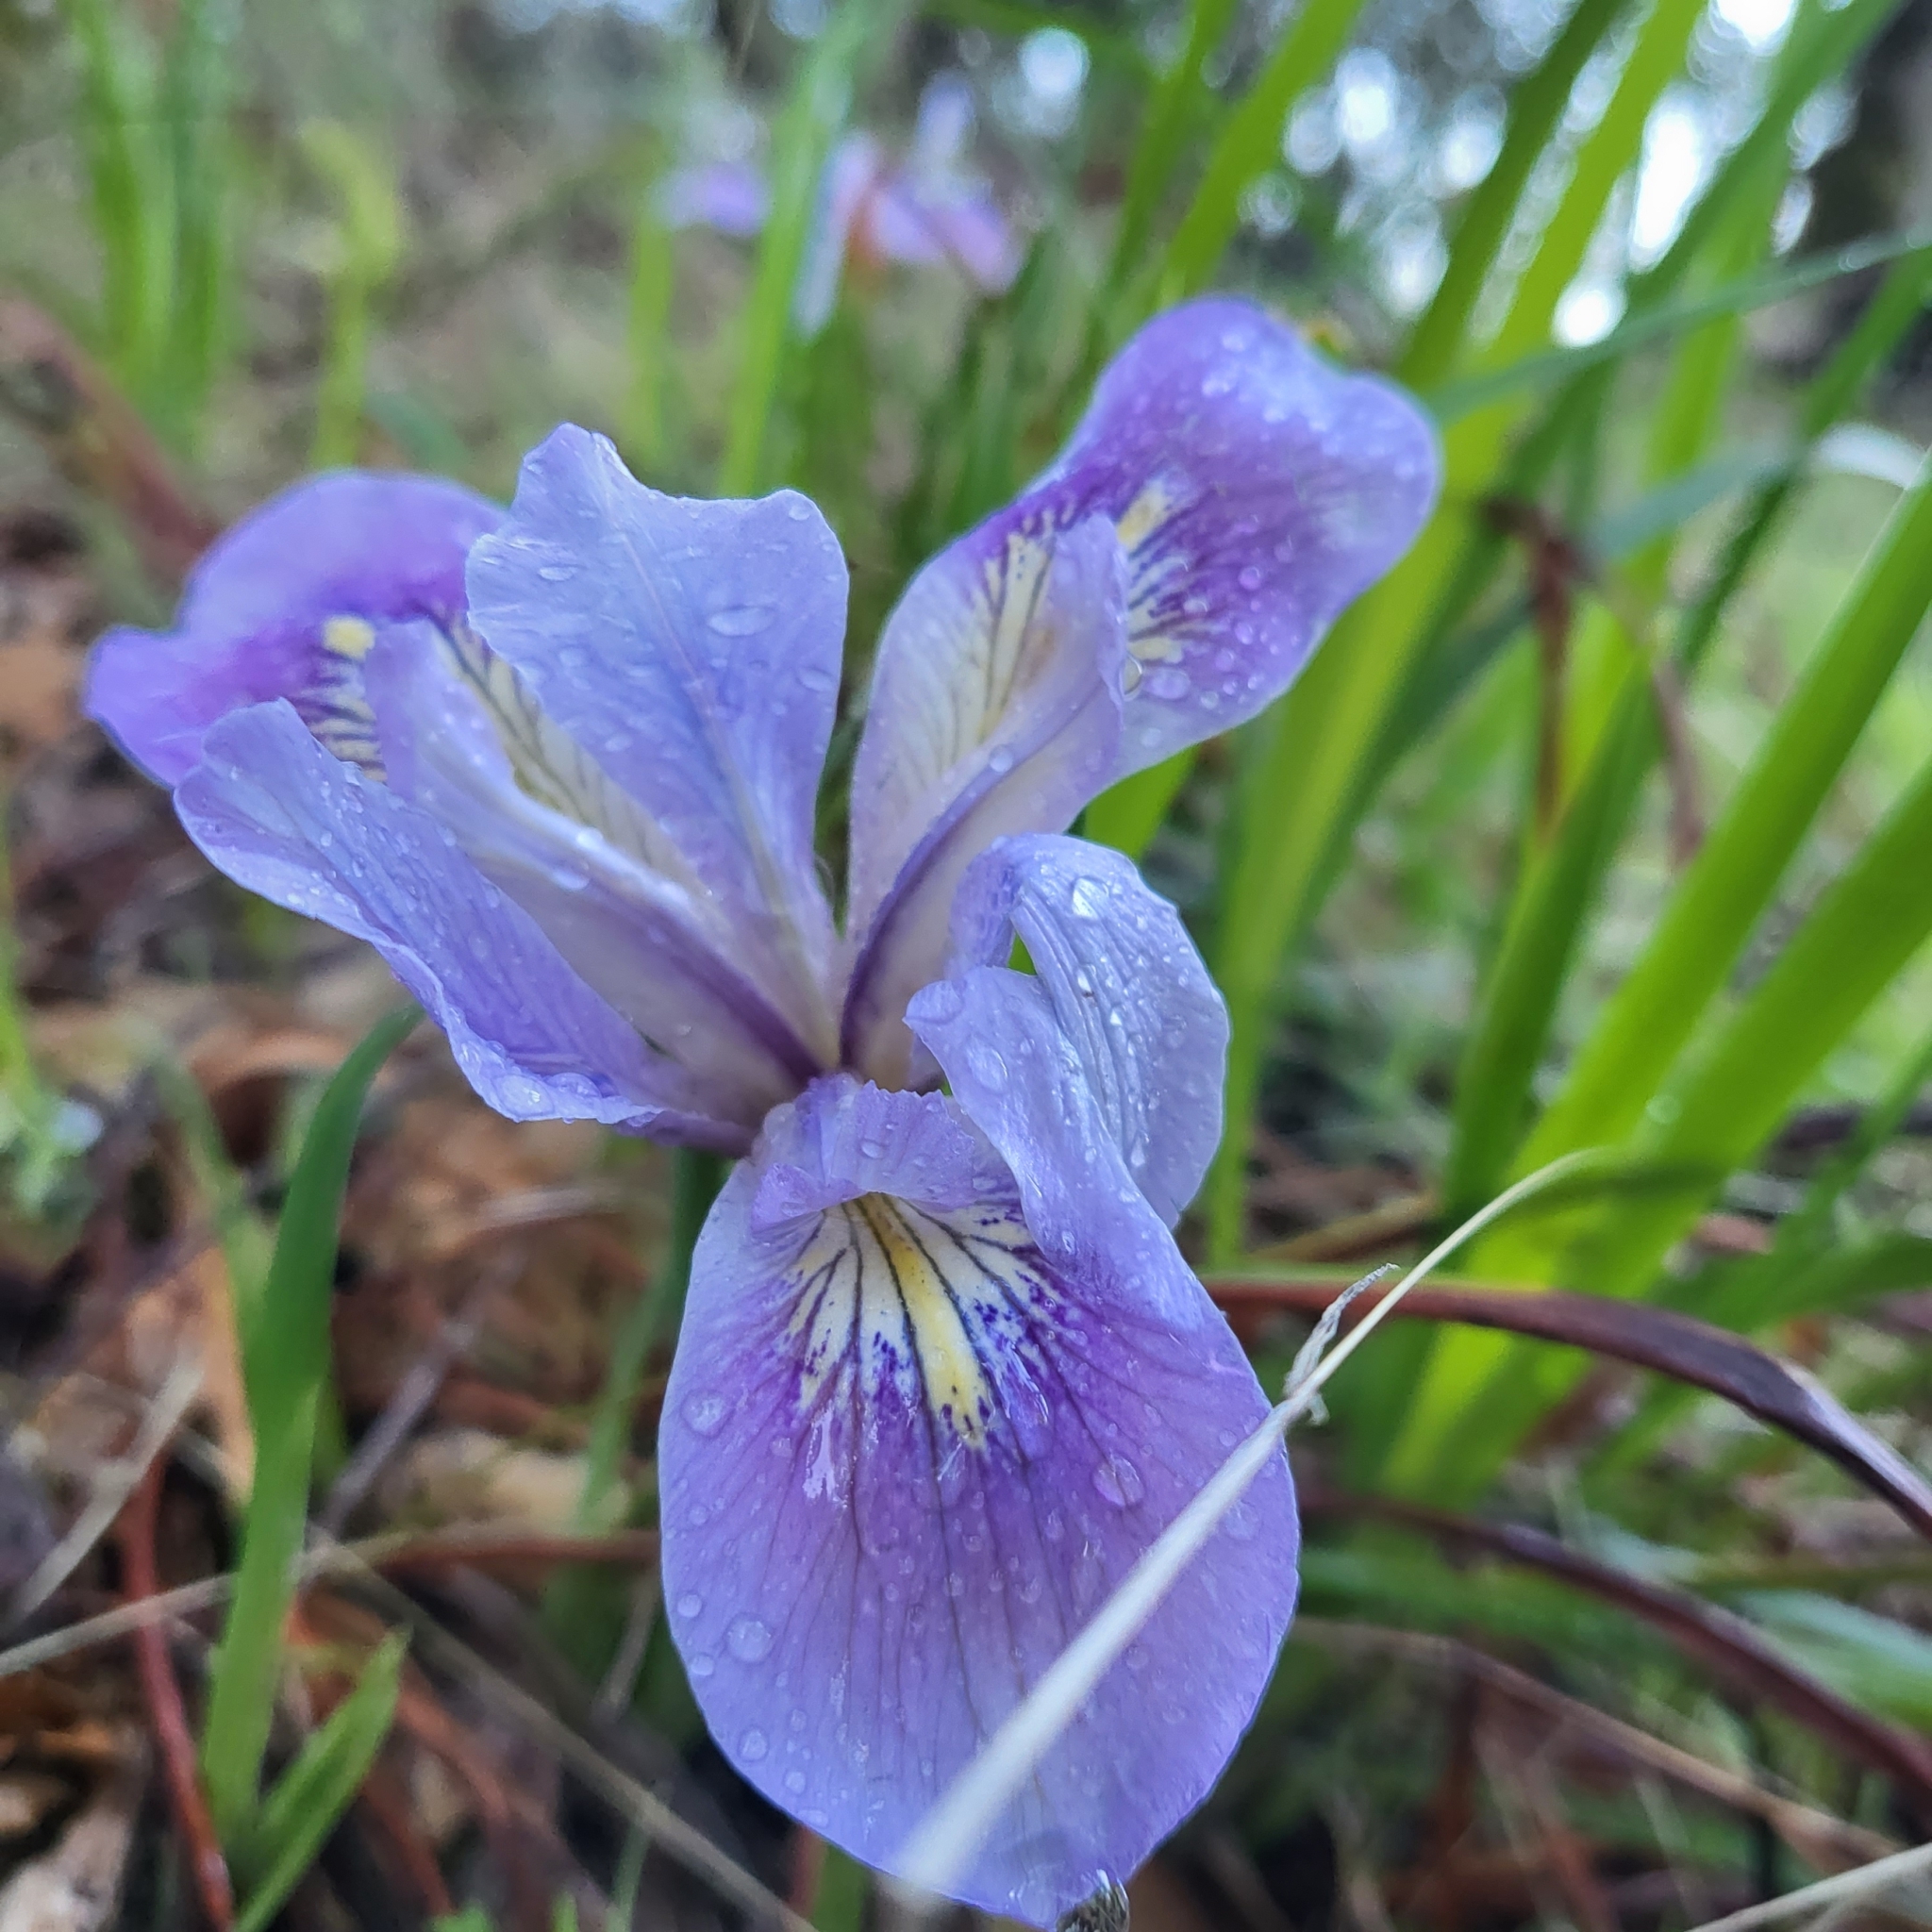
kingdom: Plantae
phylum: Tracheophyta
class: Liliopsida
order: Asparagales
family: Iridaceae
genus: Iris
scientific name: Iris douglasiana
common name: Marin iris
